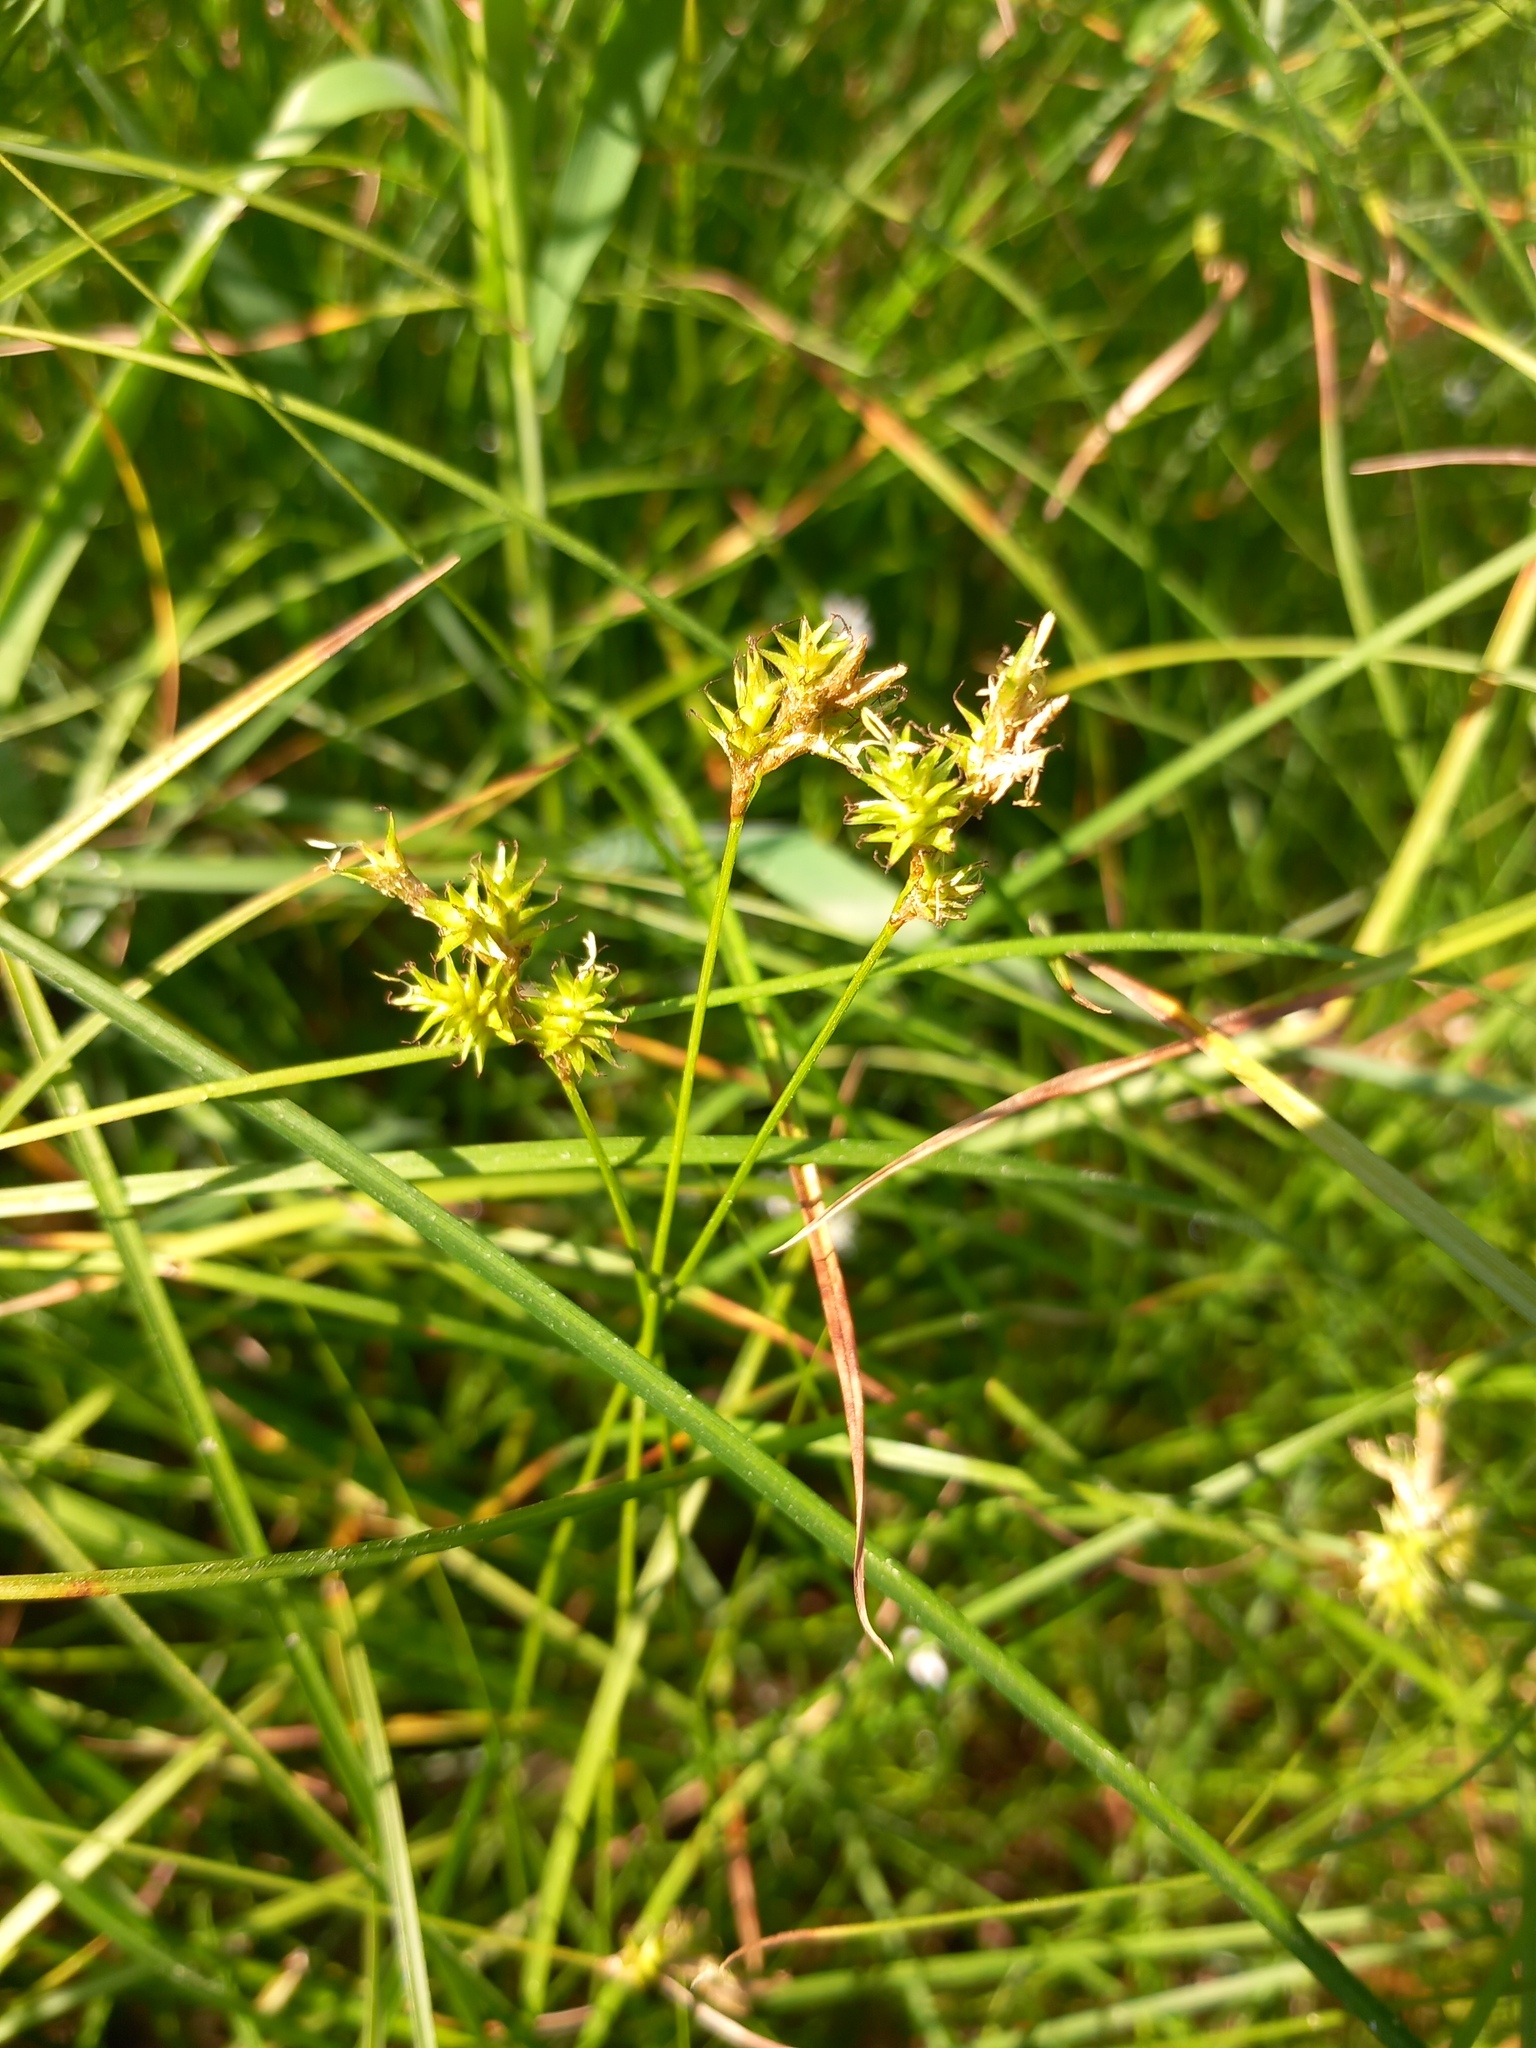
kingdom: Plantae
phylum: Tracheophyta
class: Liliopsida
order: Poales
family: Cyperaceae
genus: Carex
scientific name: Carex brizoides
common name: Quaking-grass sedge
